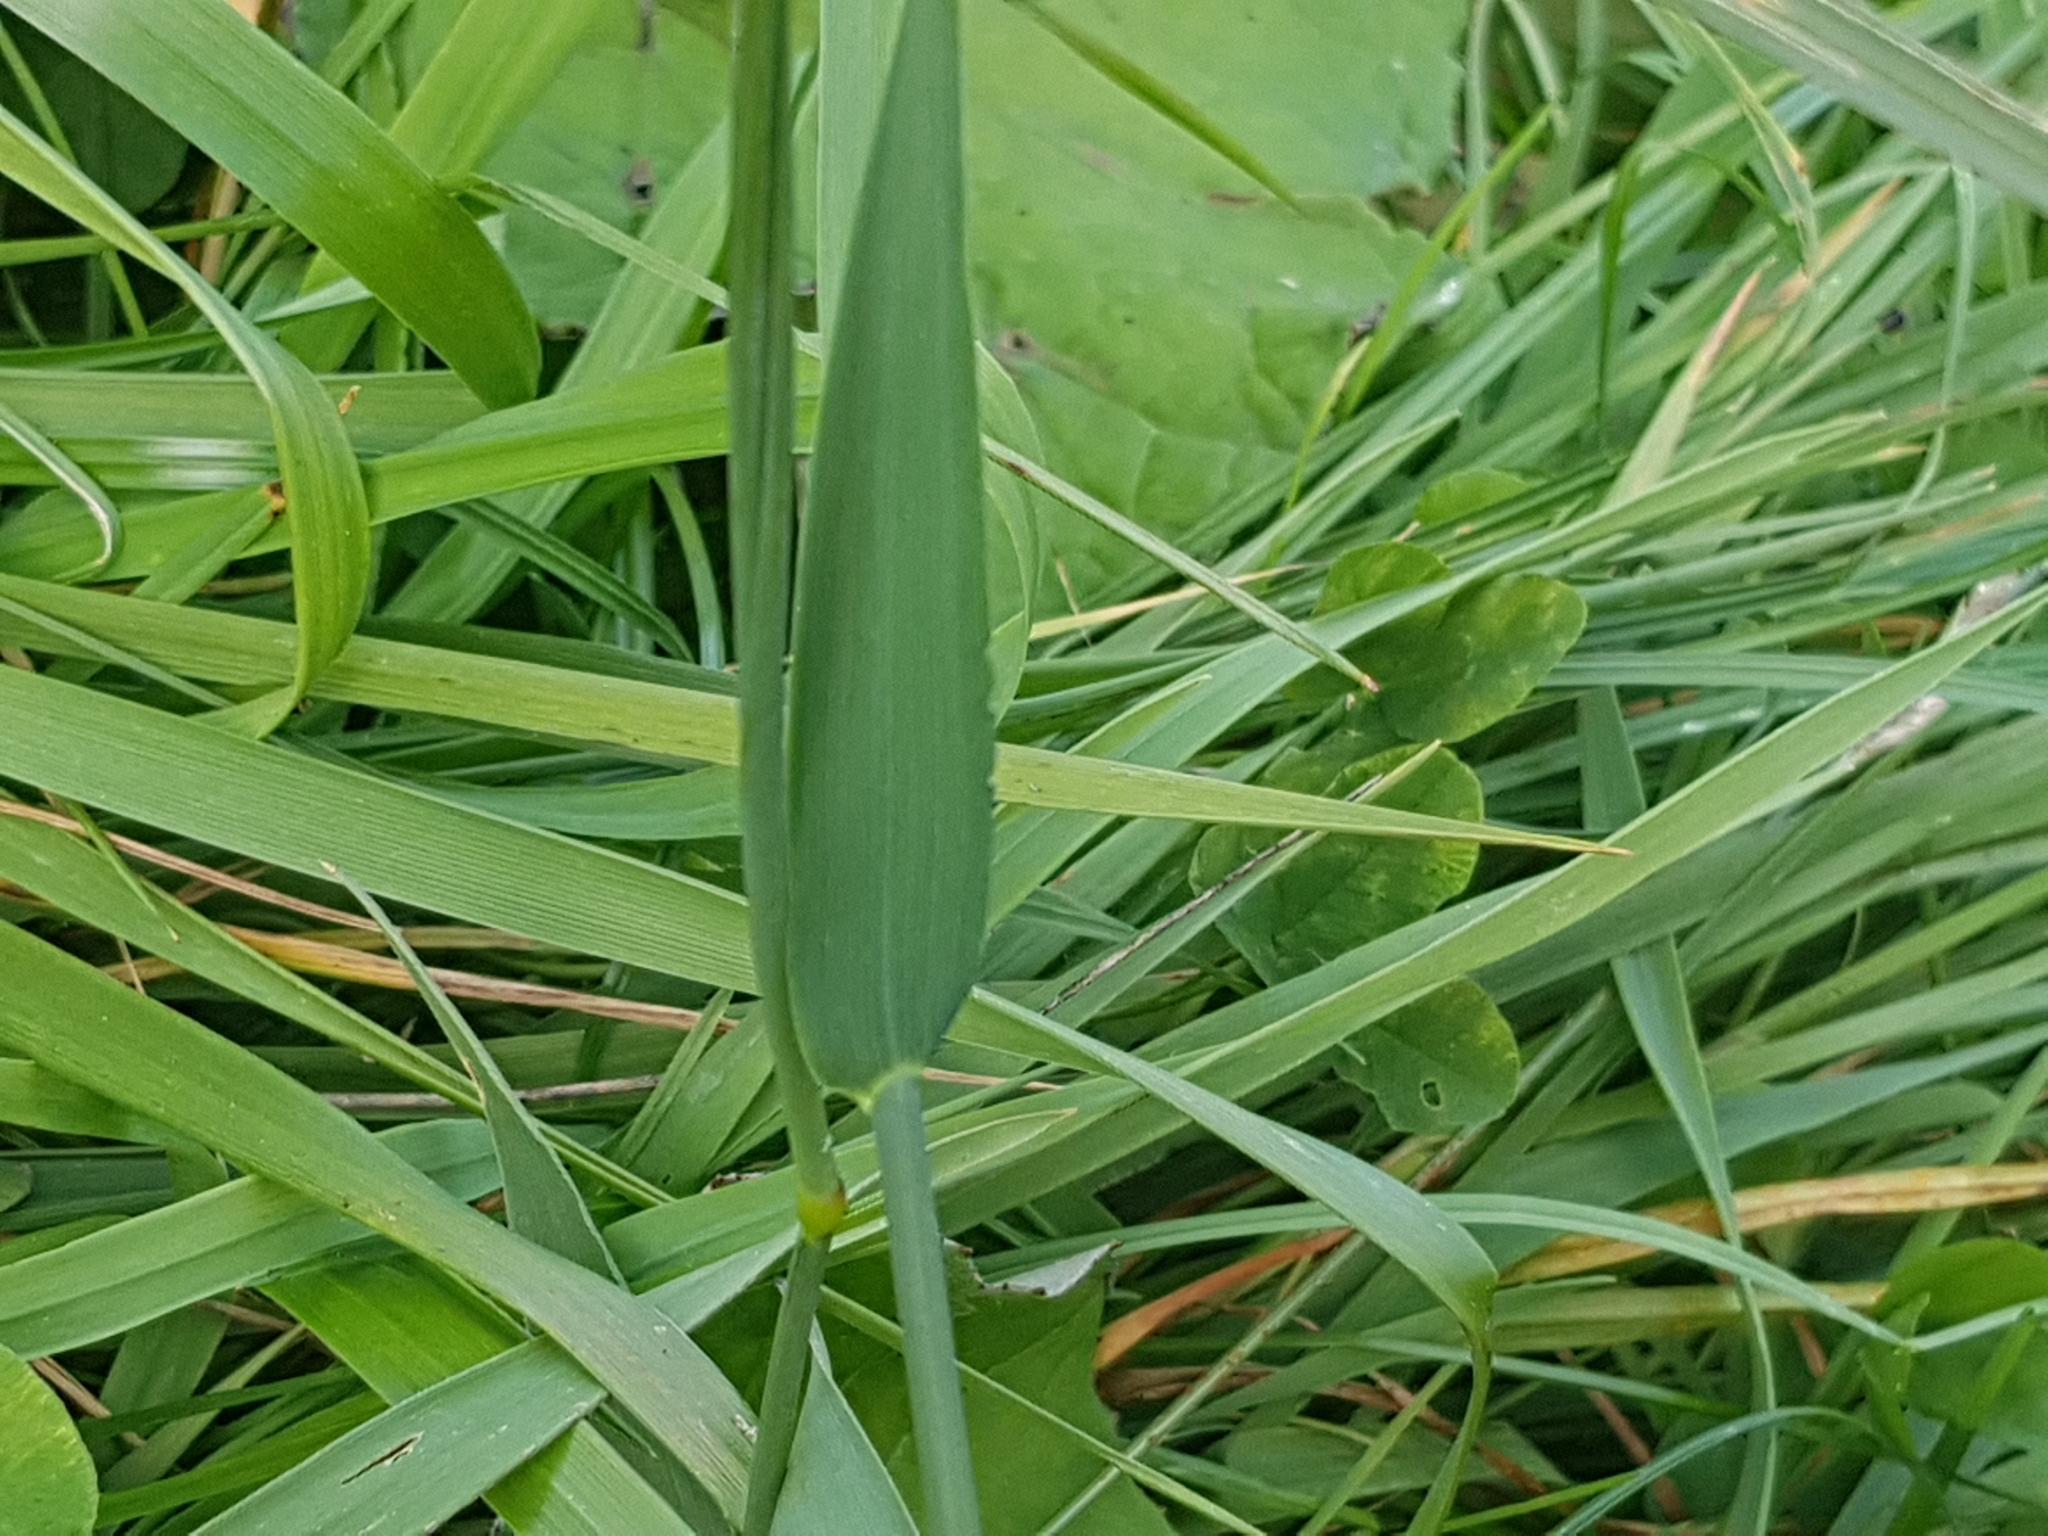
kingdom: Plantae
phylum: Tracheophyta
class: Liliopsida
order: Poales
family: Poaceae
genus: Phleum
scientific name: Phleum pratense
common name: Timothy grass
